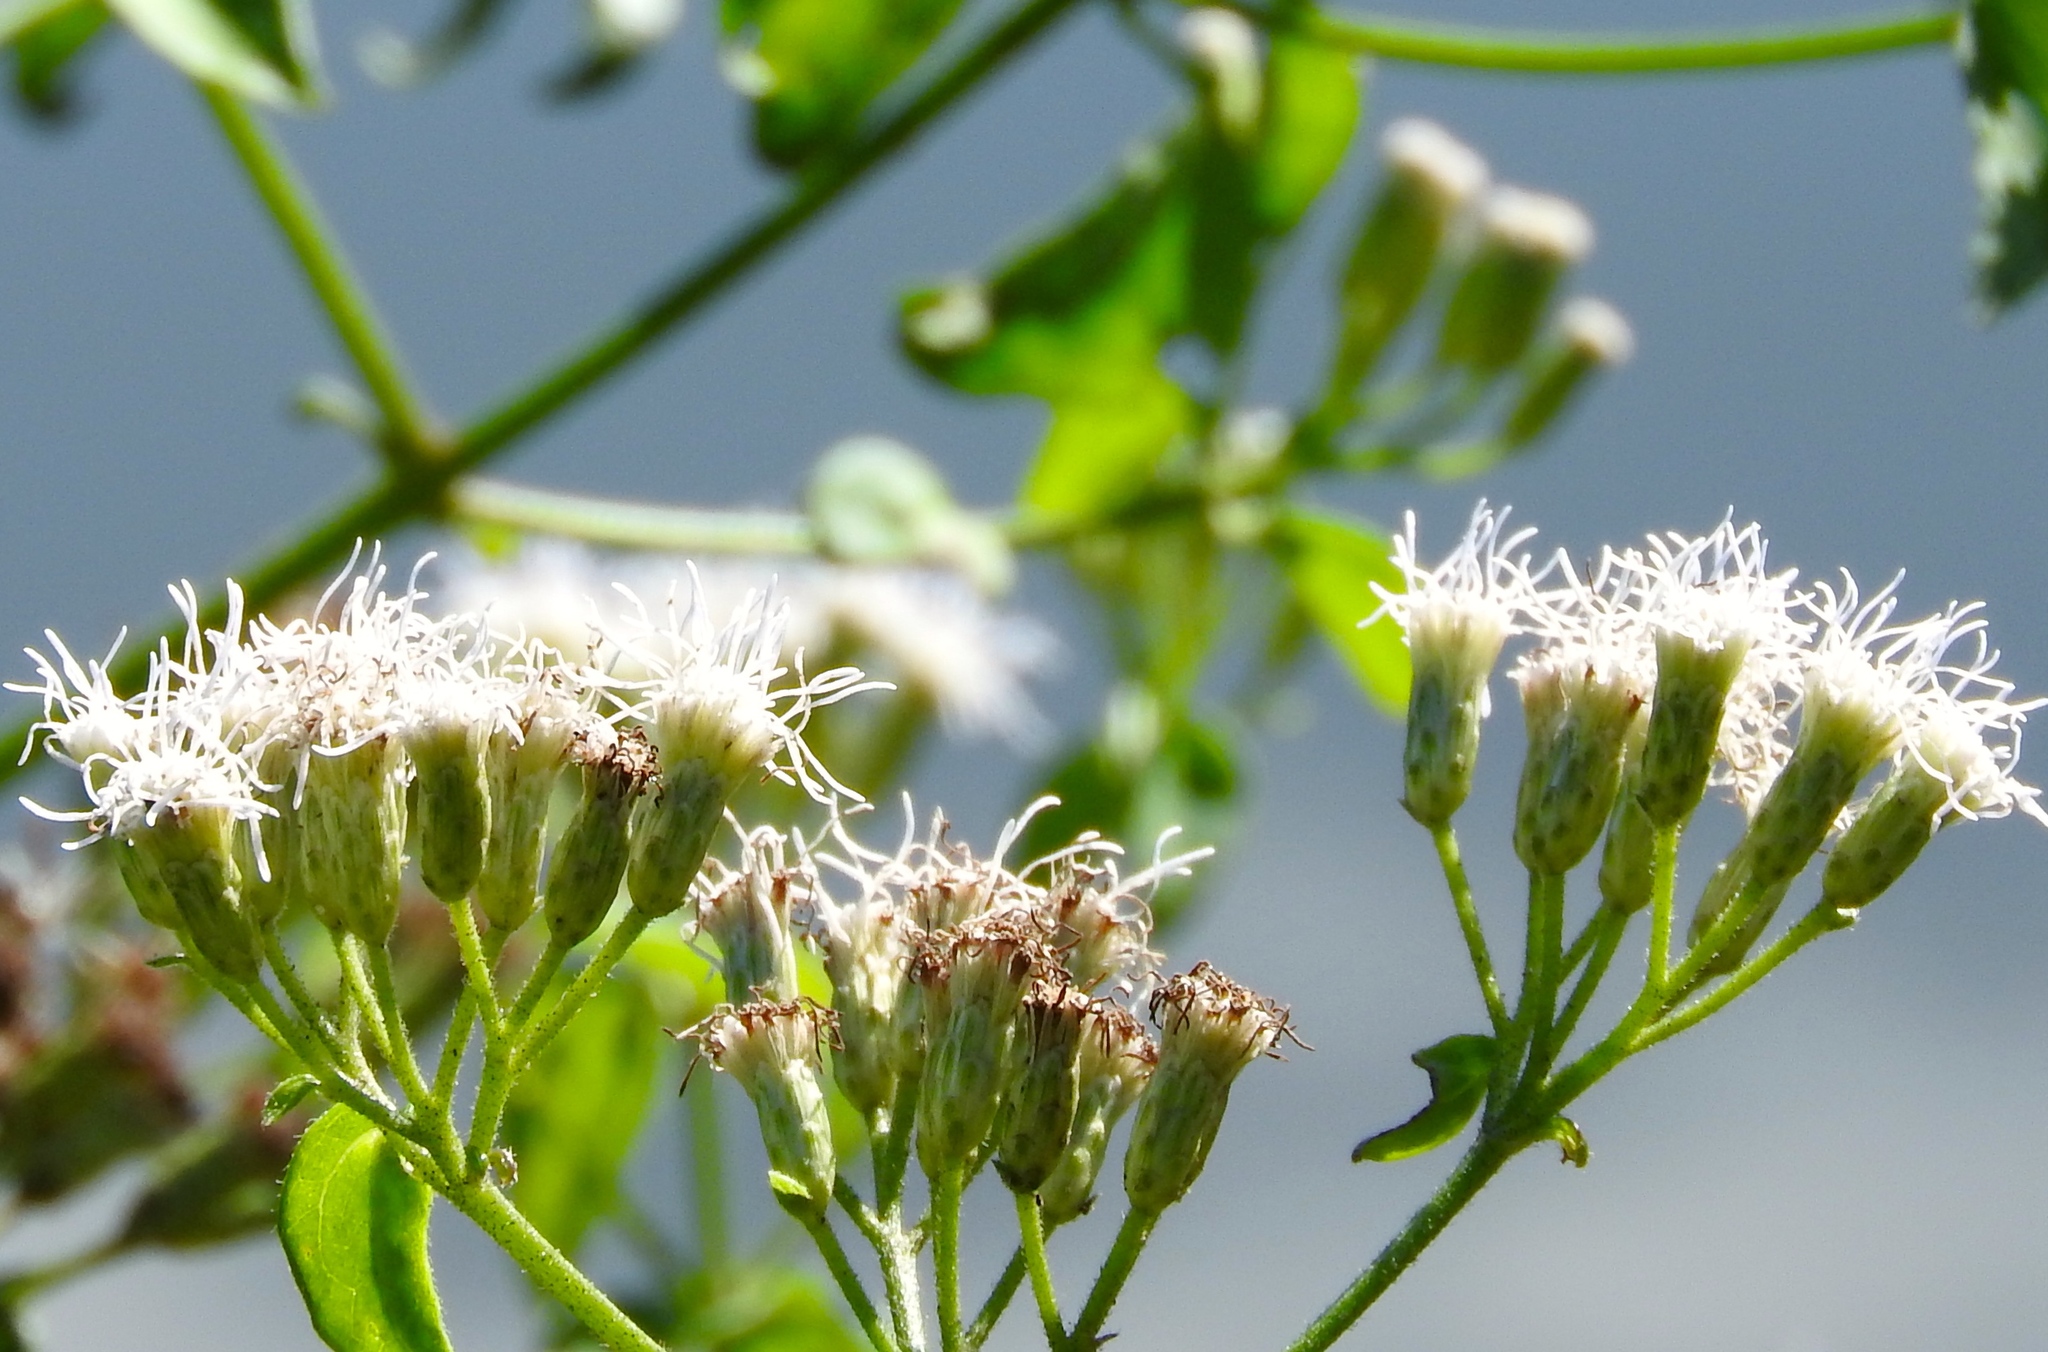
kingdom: Plantae
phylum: Tracheophyta
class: Magnoliopsida
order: Asterales
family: Asteraceae
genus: Chromolaena
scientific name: Chromolaena odorata
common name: Siamweed
